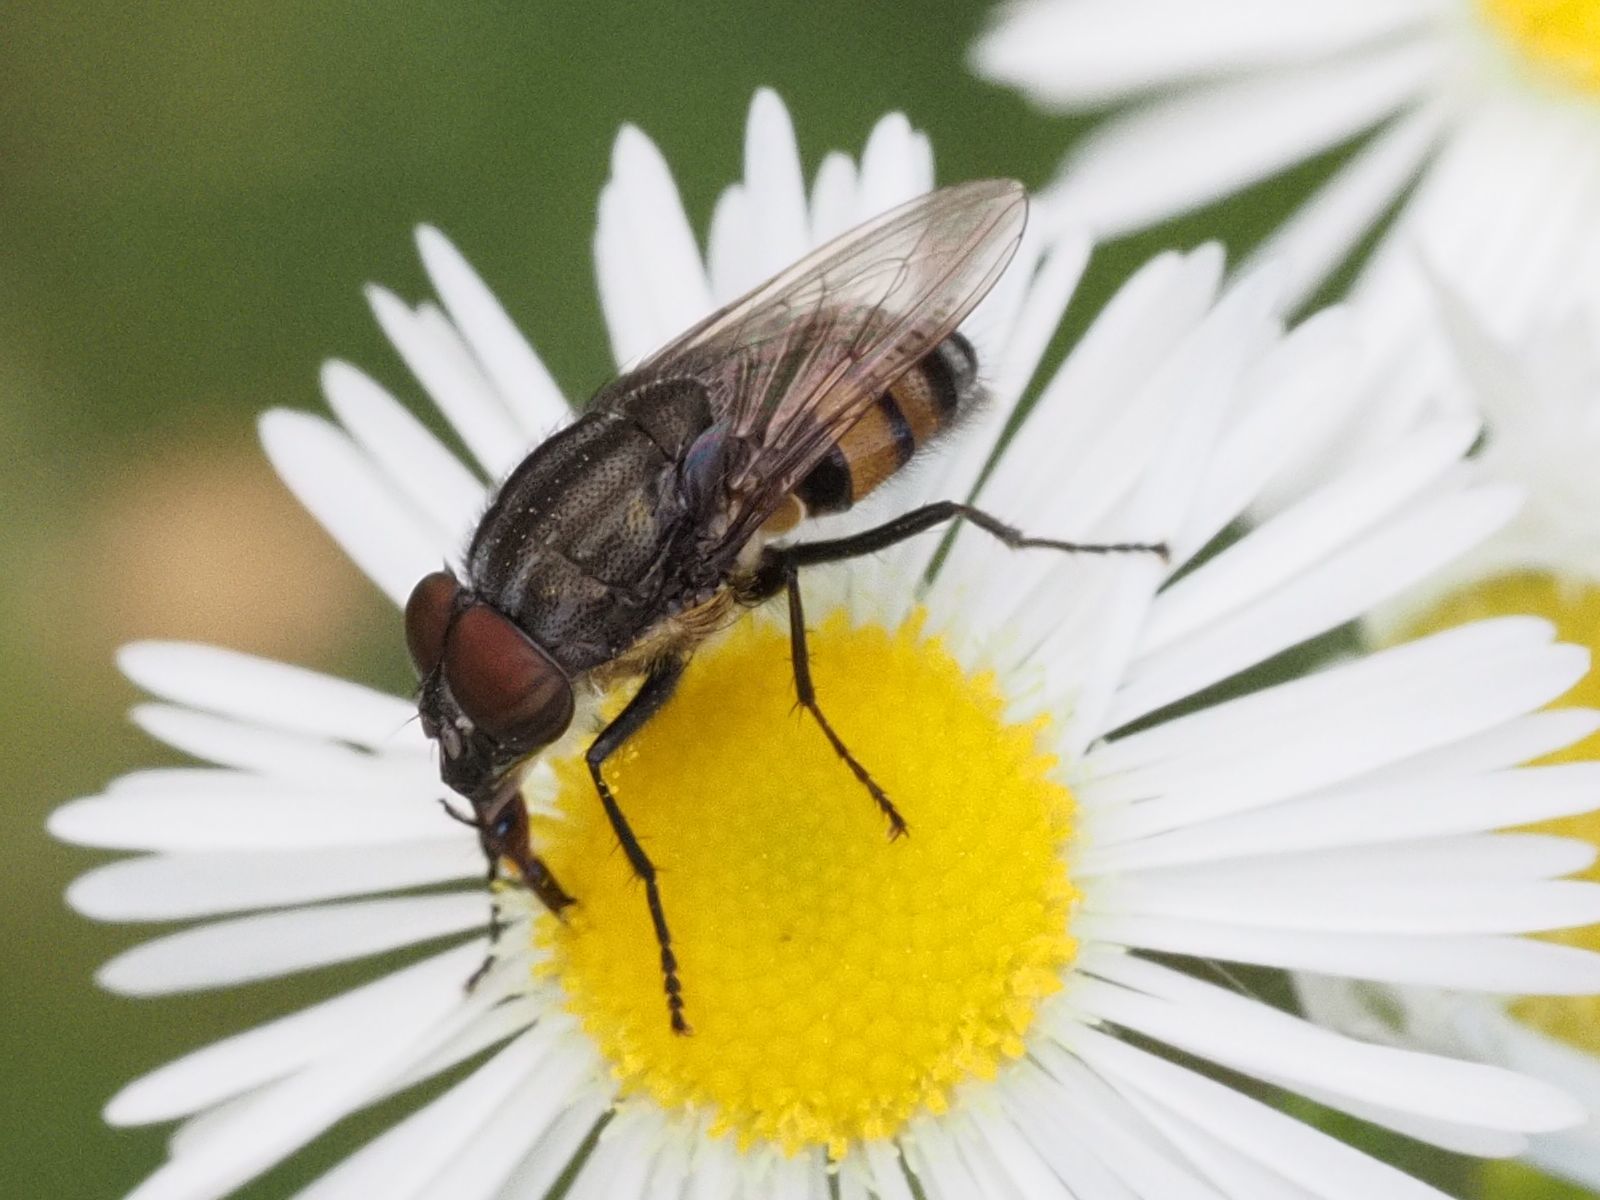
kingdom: Animalia
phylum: Arthropoda
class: Insecta
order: Diptera
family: Calliphoridae
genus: Stomorhina
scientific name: Stomorhina lunata
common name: Locust blowfly
